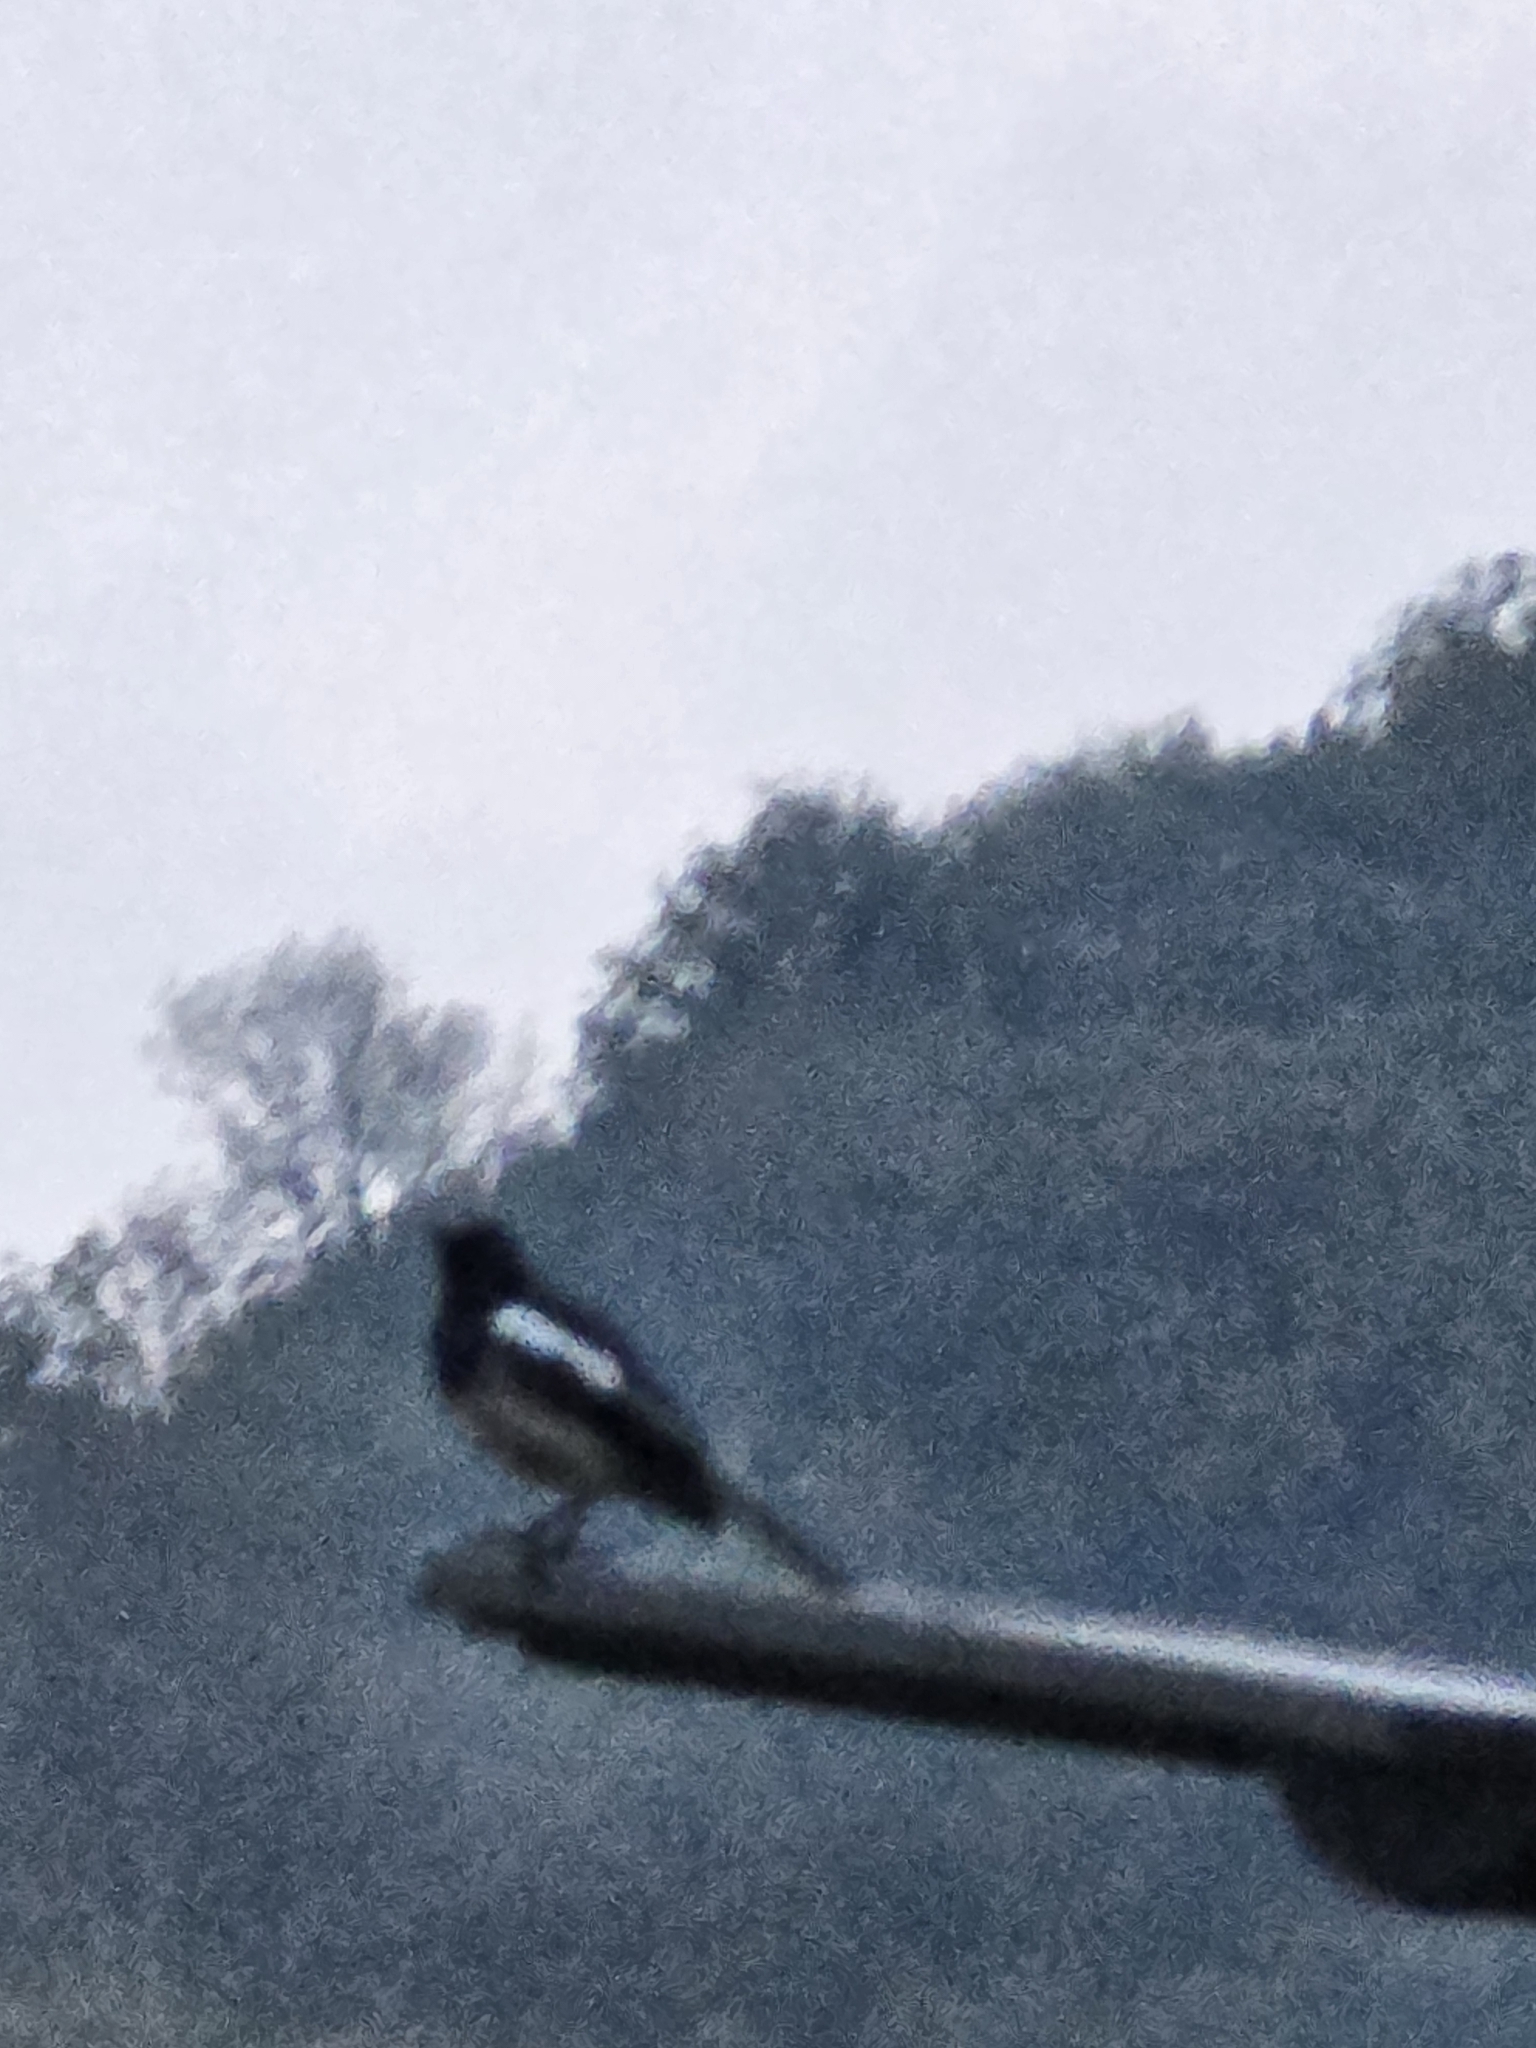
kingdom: Animalia
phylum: Chordata
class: Aves
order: Passeriformes
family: Muscicapidae
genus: Copsychus
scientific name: Copsychus saularis
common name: Oriental magpie-robin
